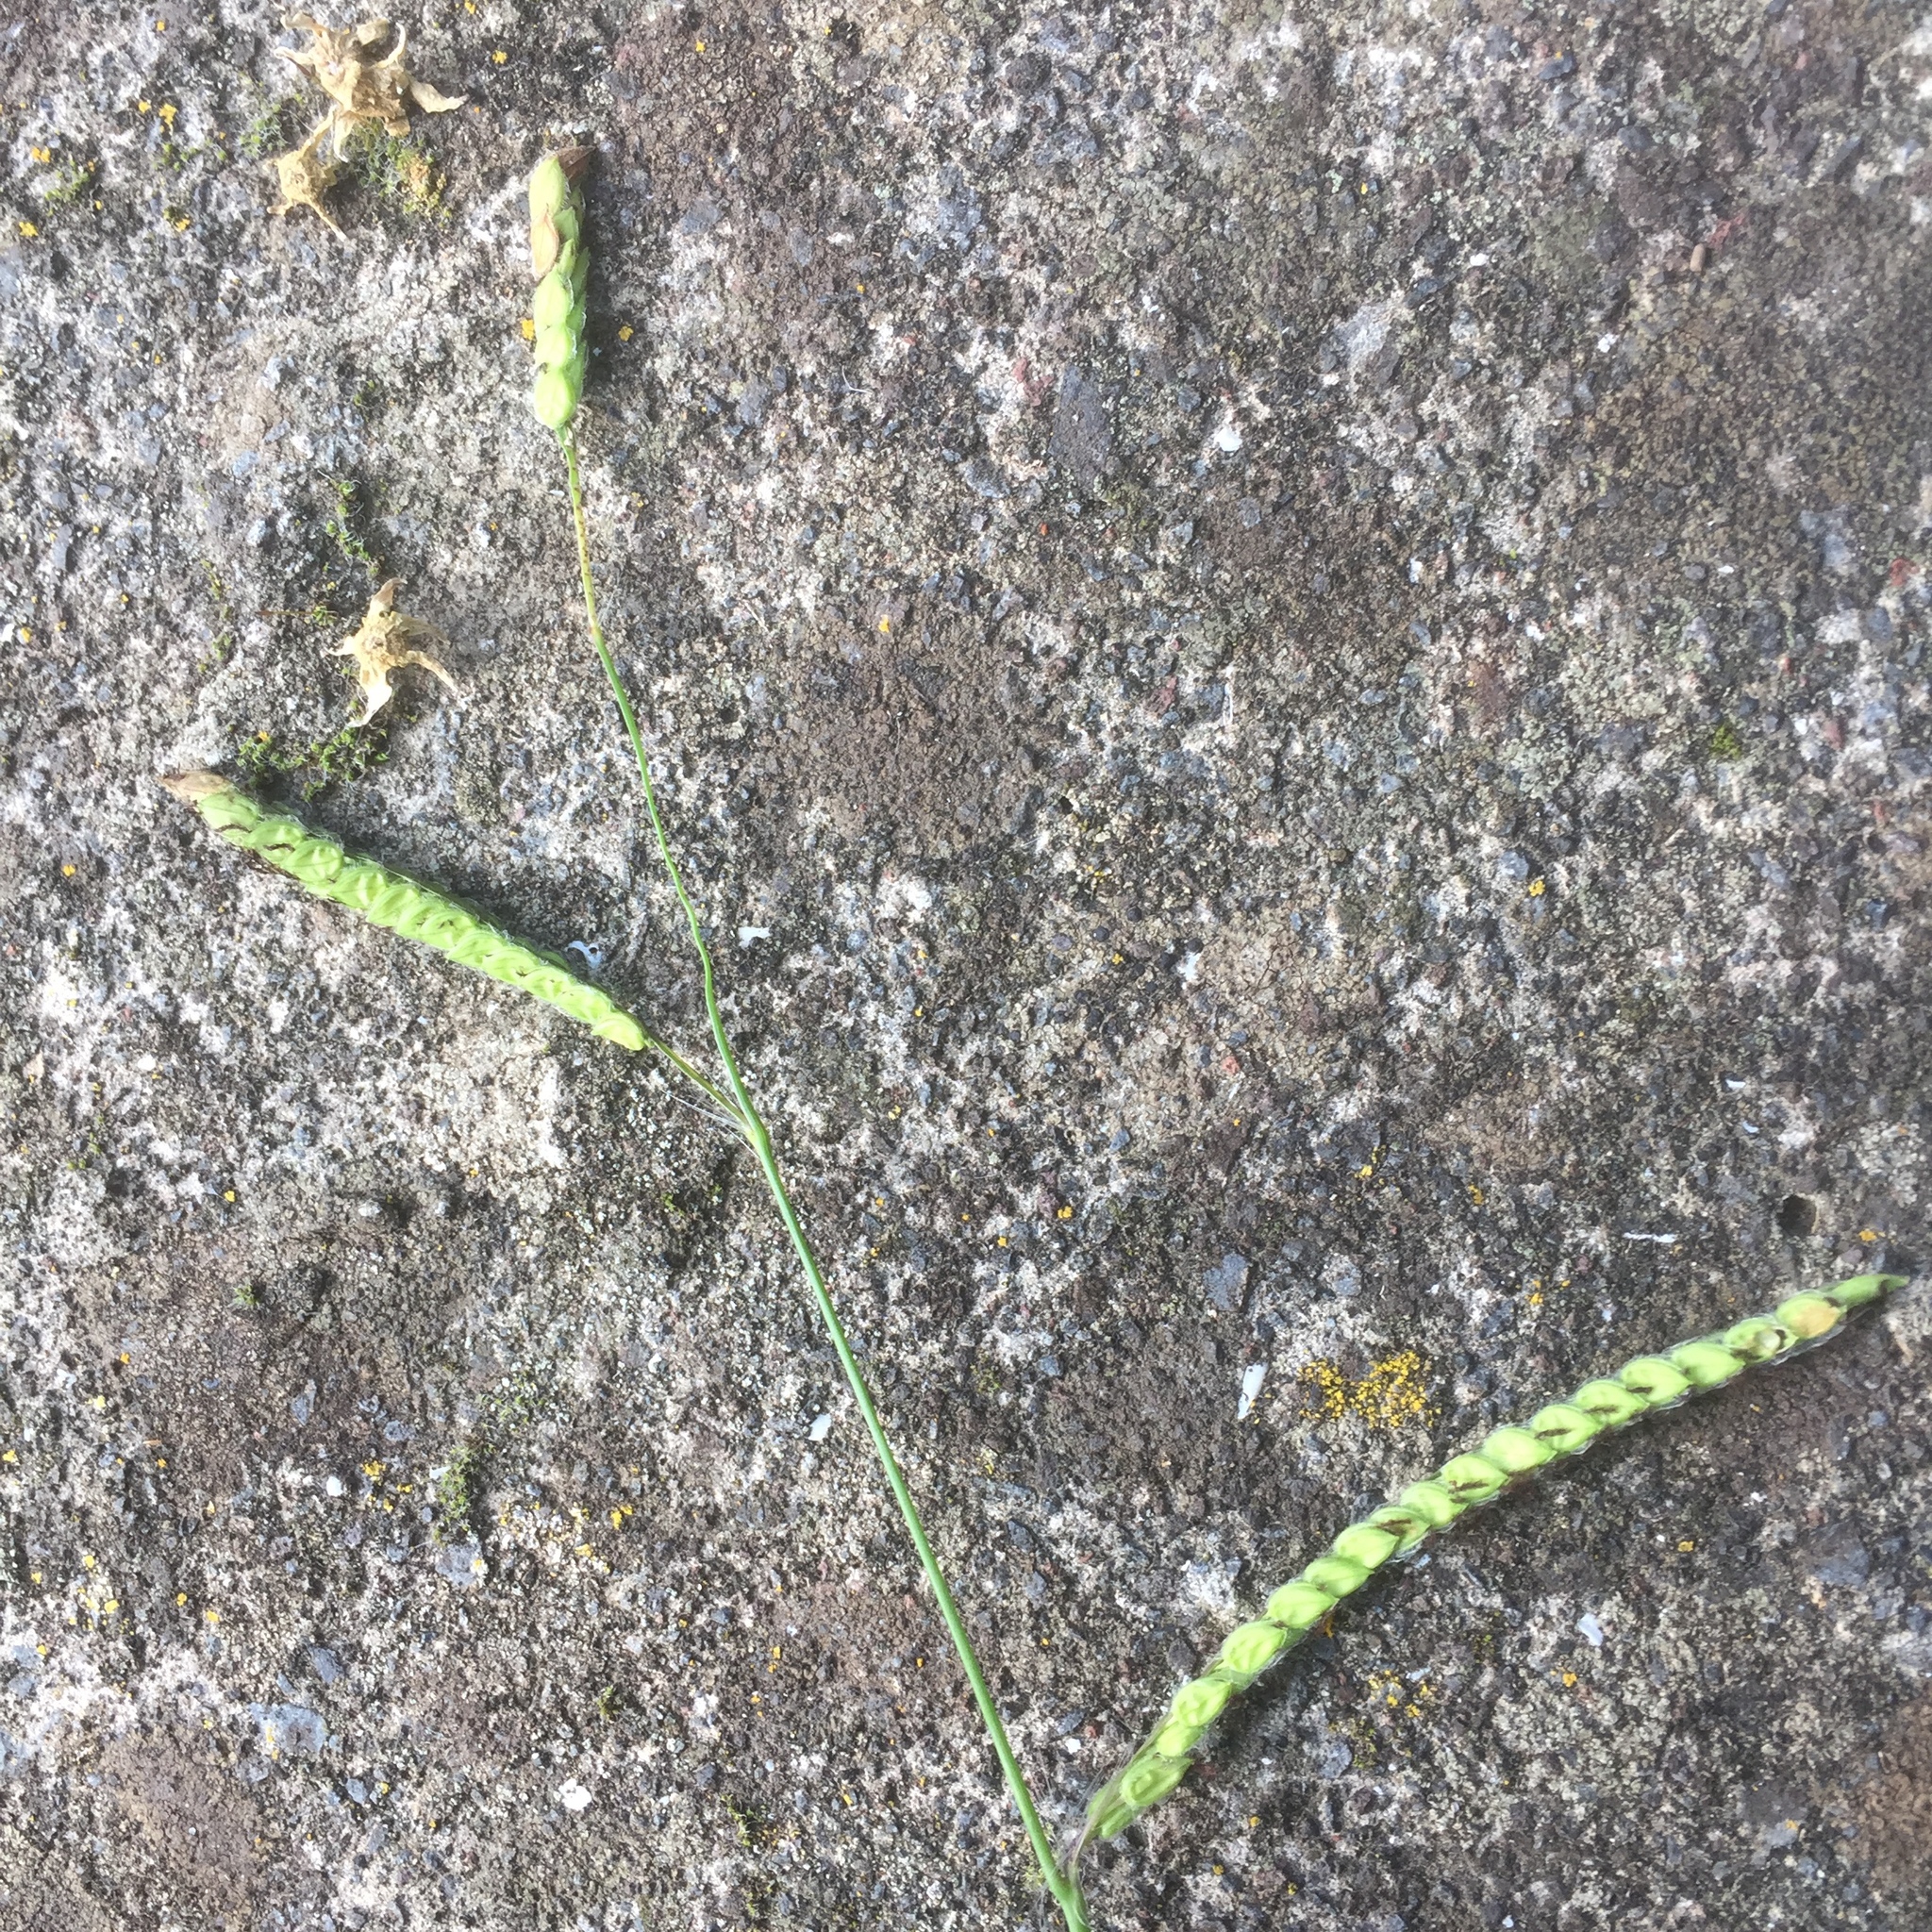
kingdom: Plantae
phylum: Tracheophyta
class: Liliopsida
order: Poales
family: Poaceae
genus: Paspalum
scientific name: Paspalum dilatatum
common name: Dallisgrass
